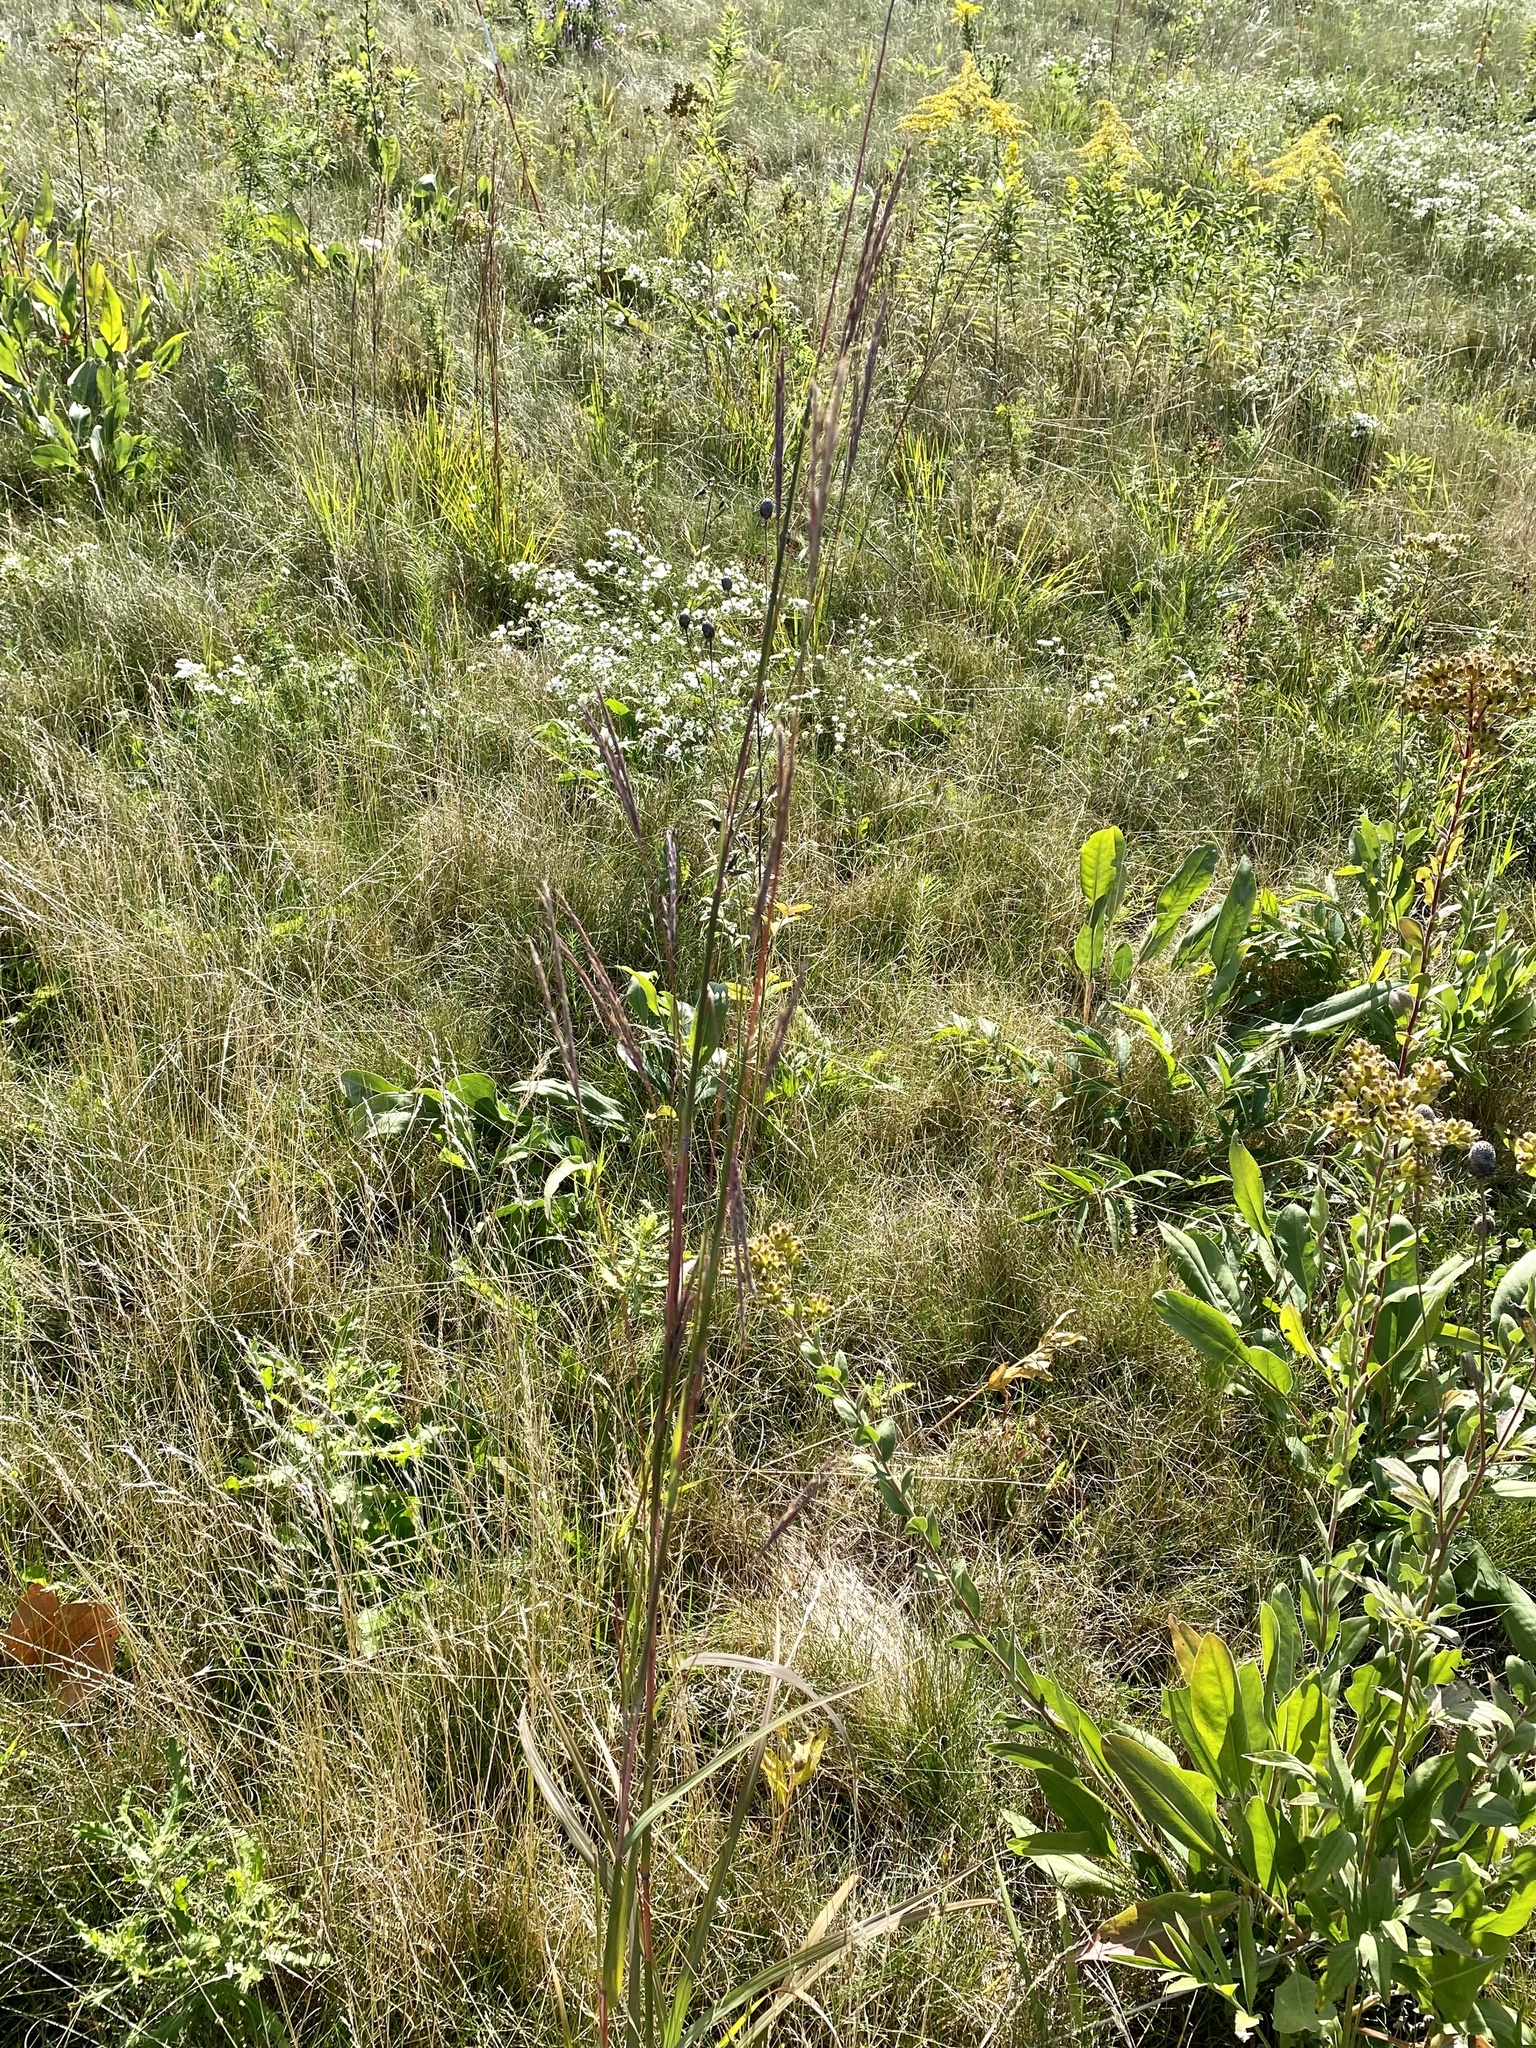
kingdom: Plantae
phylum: Tracheophyta
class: Liliopsida
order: Poales
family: Poaceae
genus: Andropogon
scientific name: Andropogon gerardi
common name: Big bluestem
